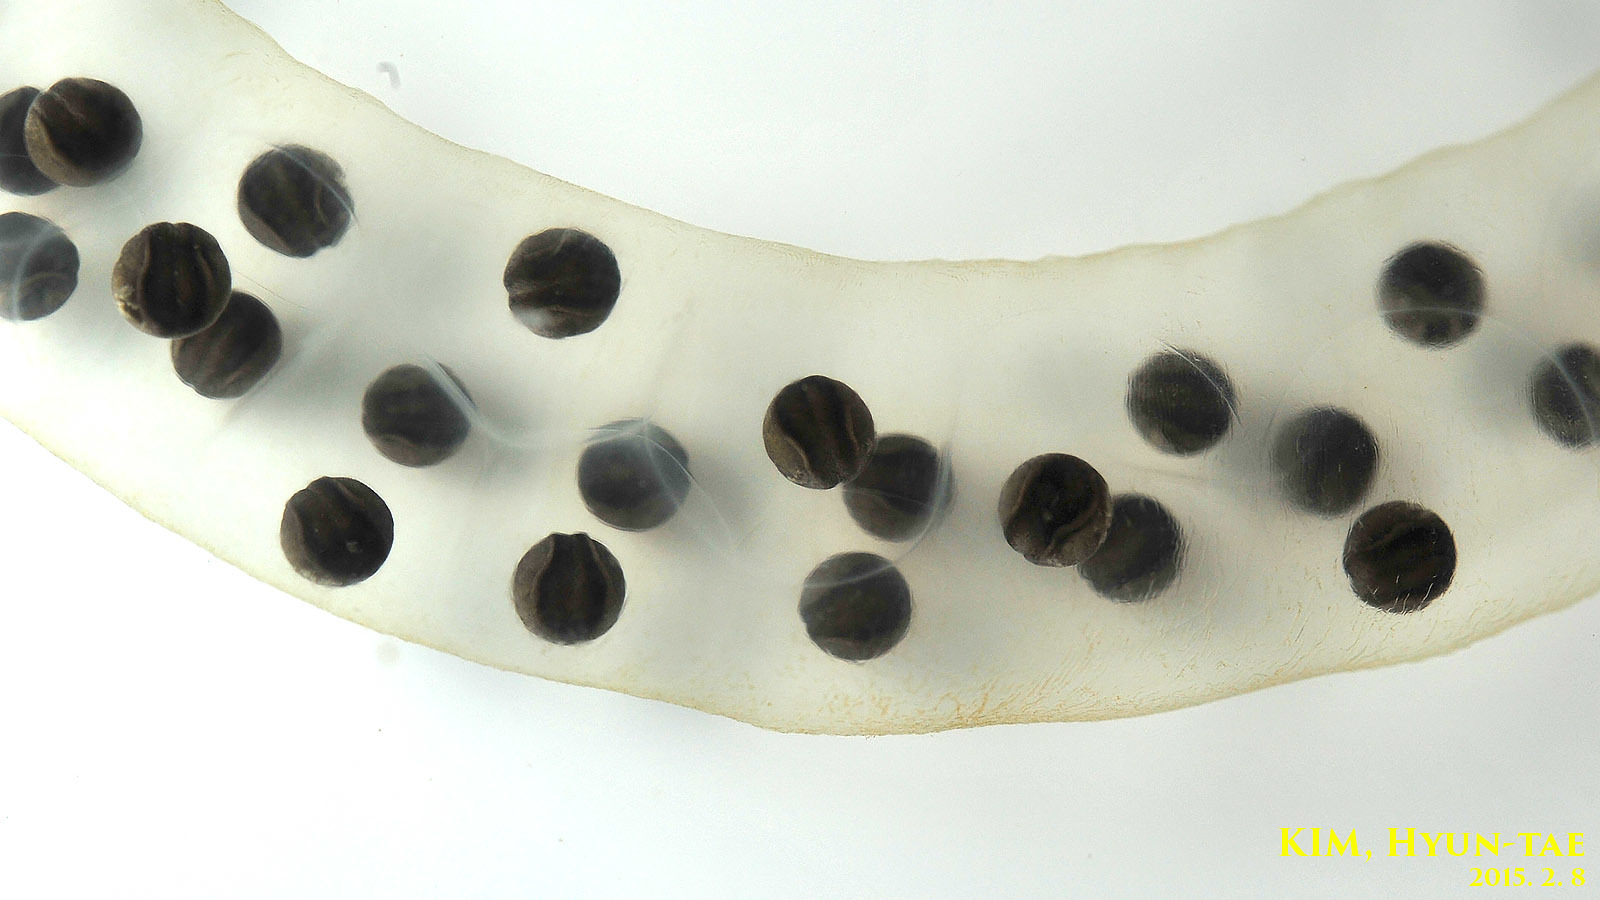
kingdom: Animalia
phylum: Chordata
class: Amphibia
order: Caudata
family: Hynobiidae
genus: Hynobius
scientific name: Hynobius leechii
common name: Gensan salamander
